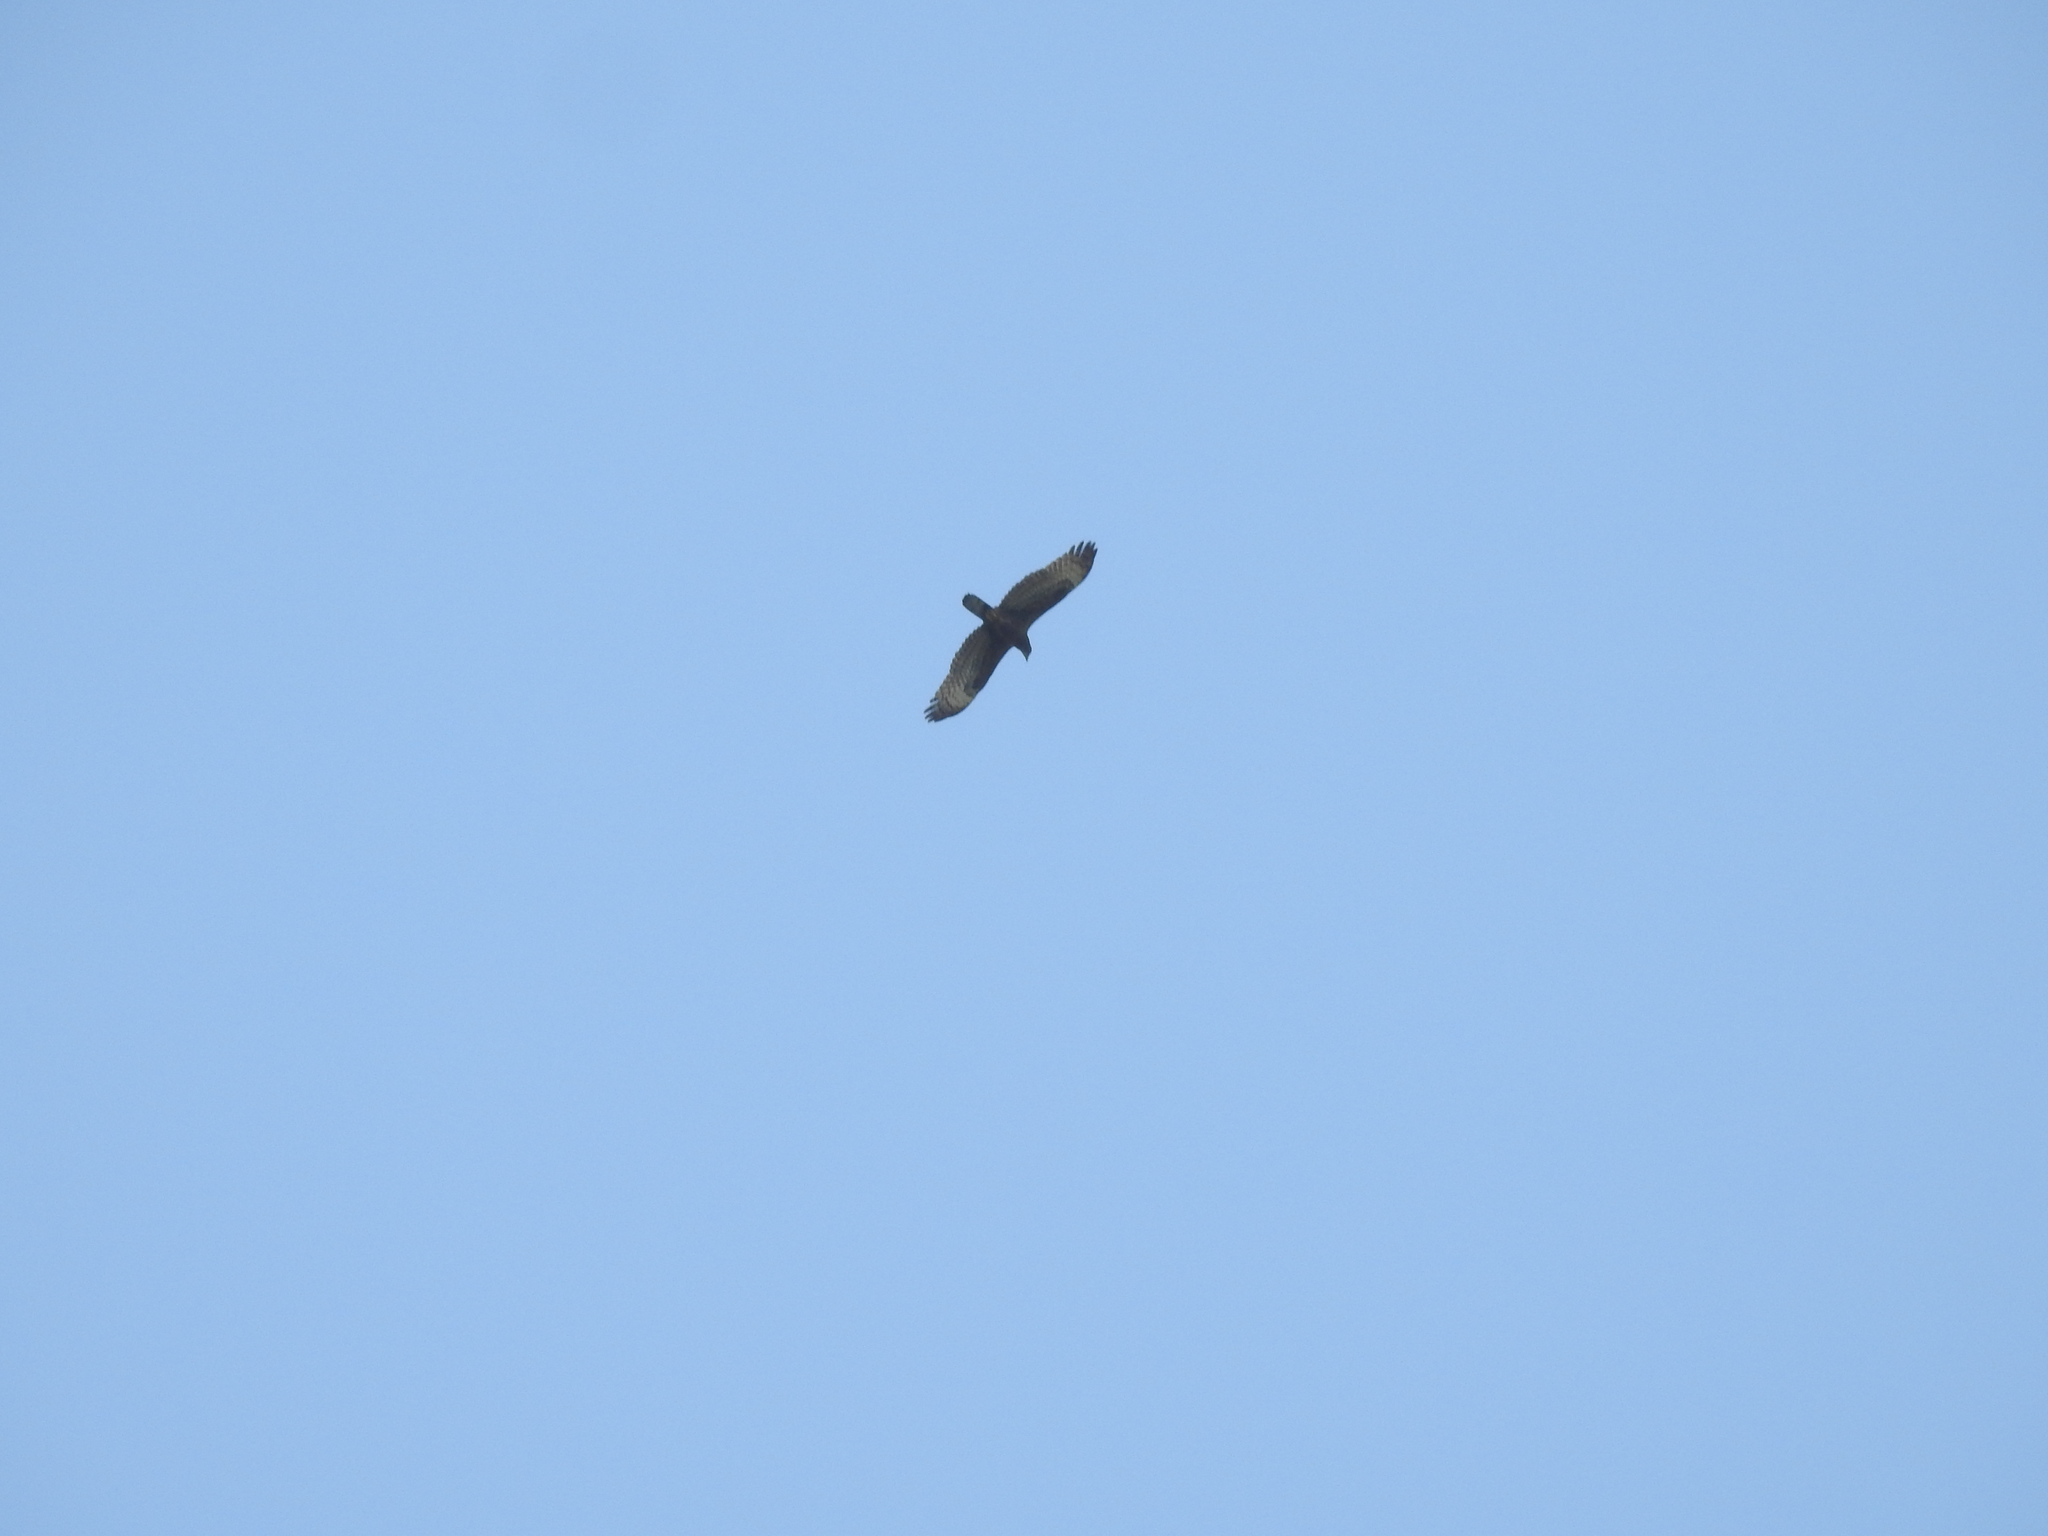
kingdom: Animalia
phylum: Chordata
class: Aves
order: Accipitriformes
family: Accipitridae
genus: Pernis
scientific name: Pernis ptilorhynchus
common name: Crested honey buzzard
